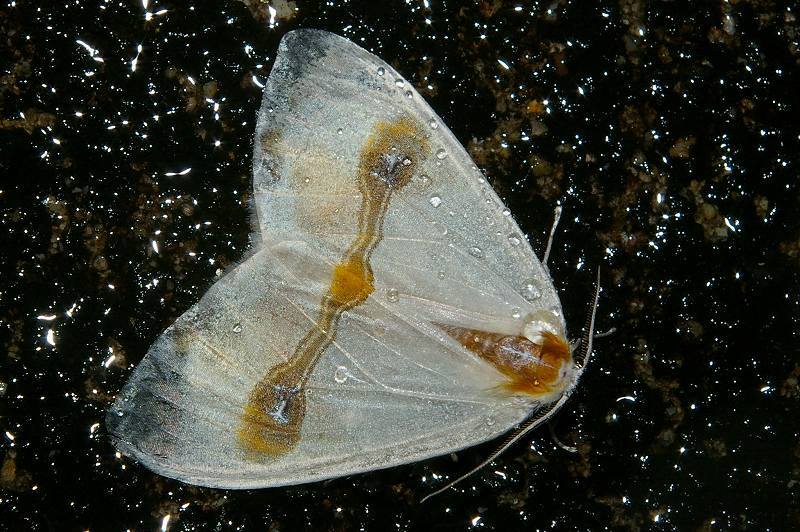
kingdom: Animalia
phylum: Arthropoda
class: Insecta
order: Lepidoptera
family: Drepanidae
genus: Macrocilix
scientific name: Macrocilix mysticata
